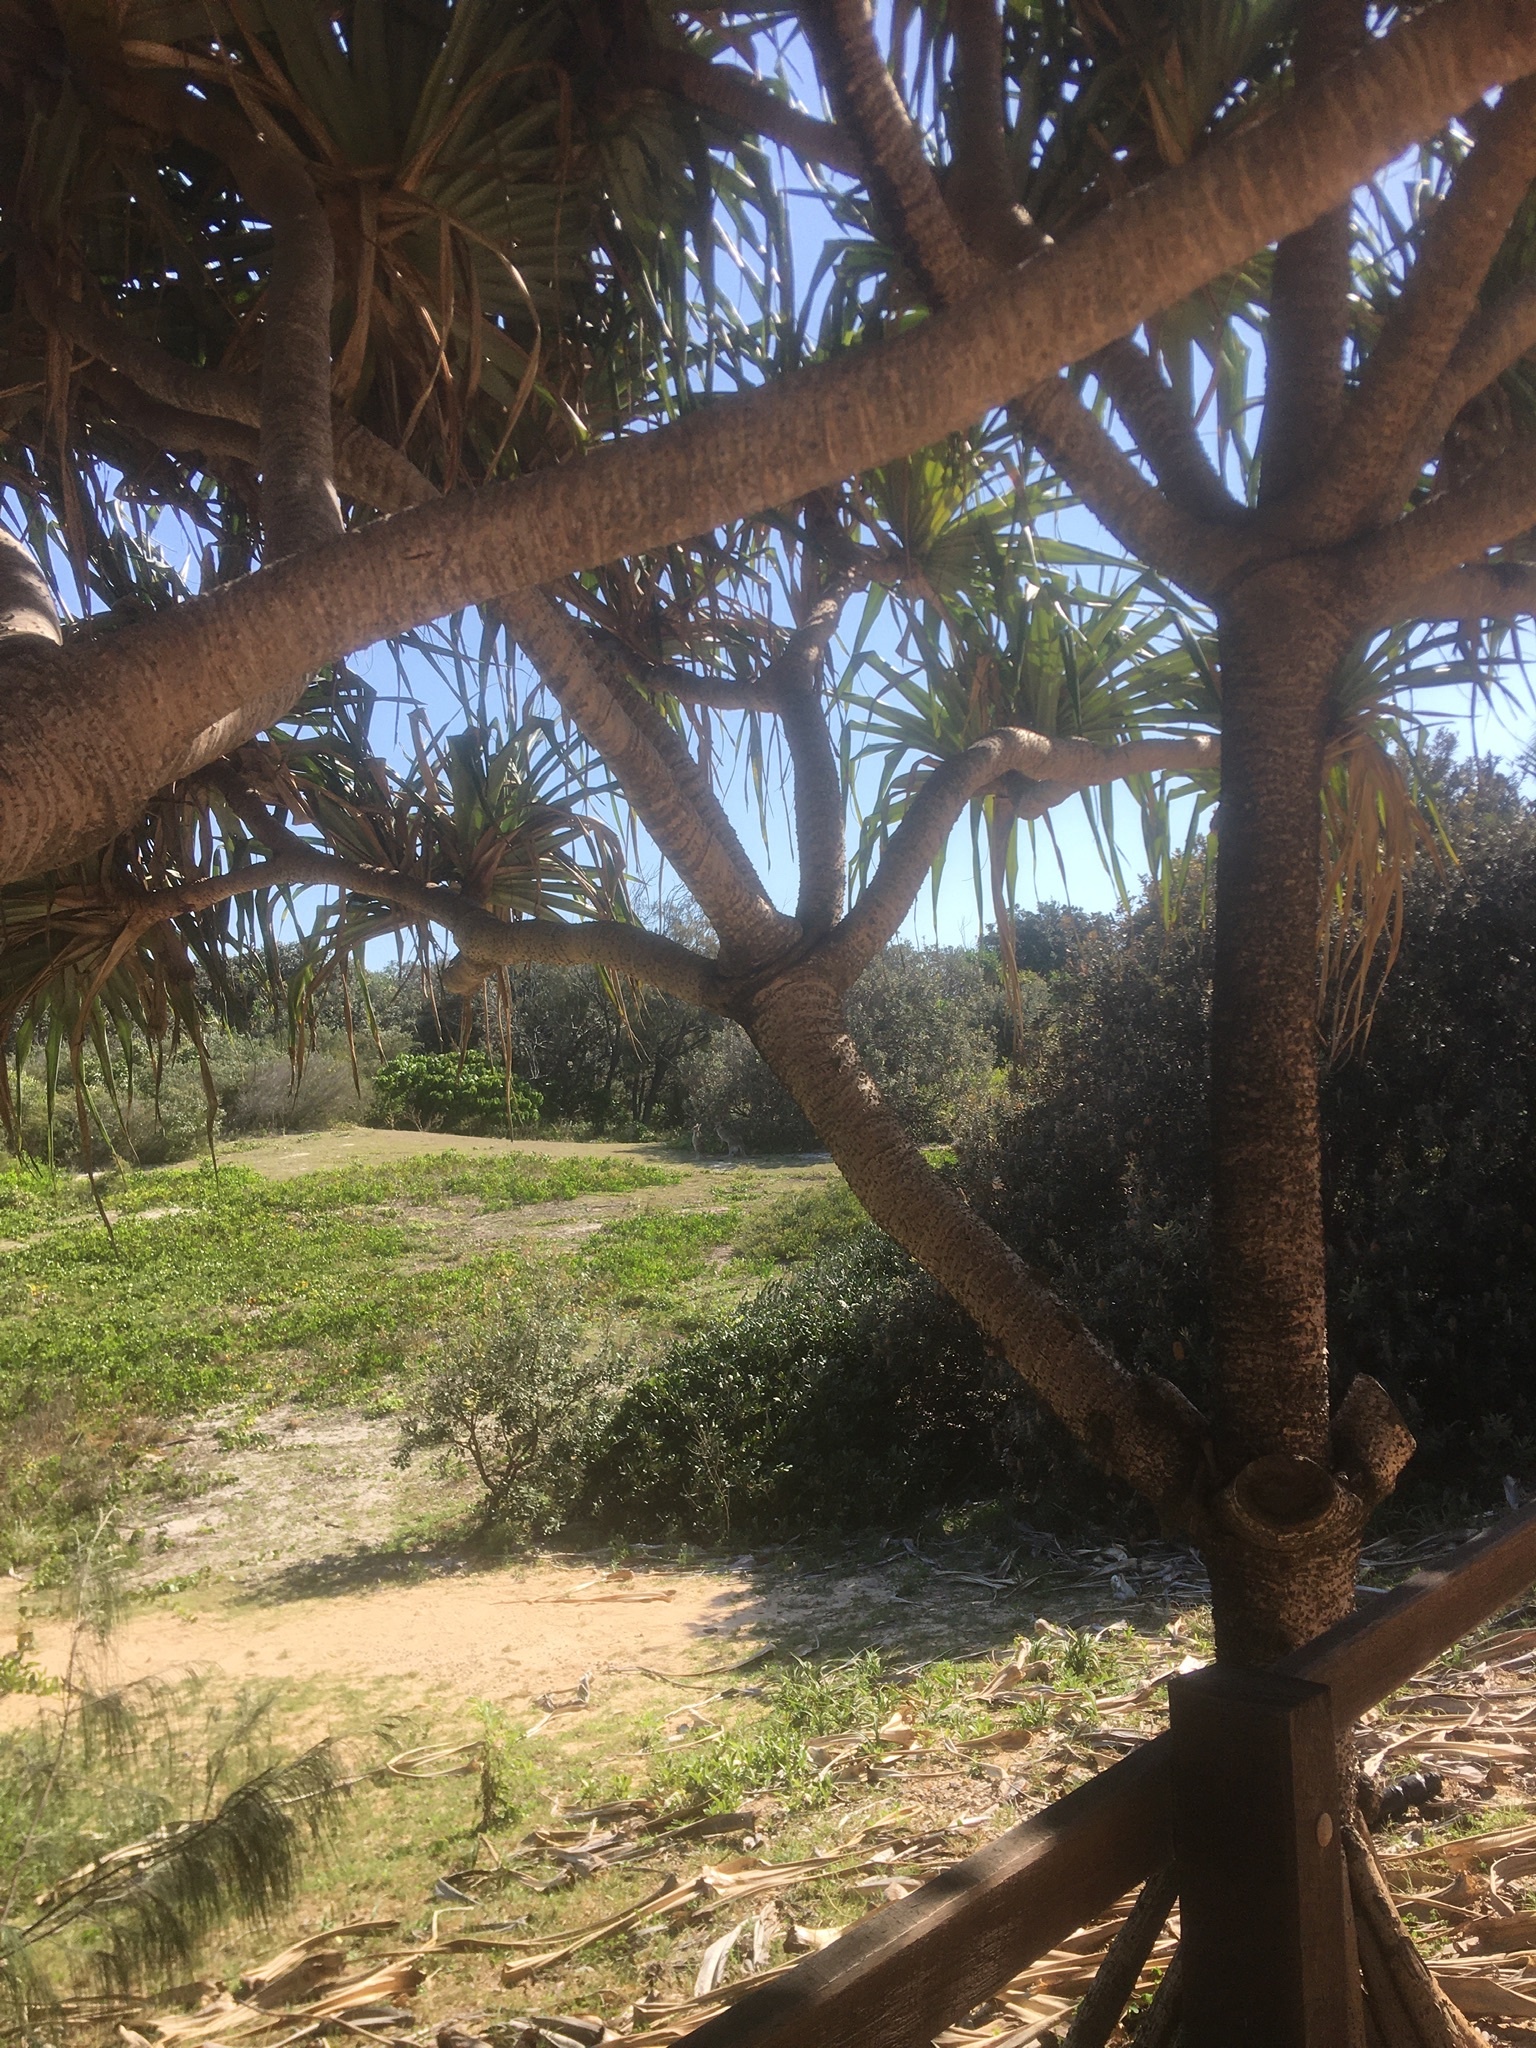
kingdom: Plantae
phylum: Tracheophyta
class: Liliopsida
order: Pandanales
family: Pandanaceae
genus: Pandanus
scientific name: Pandanus tectorius
